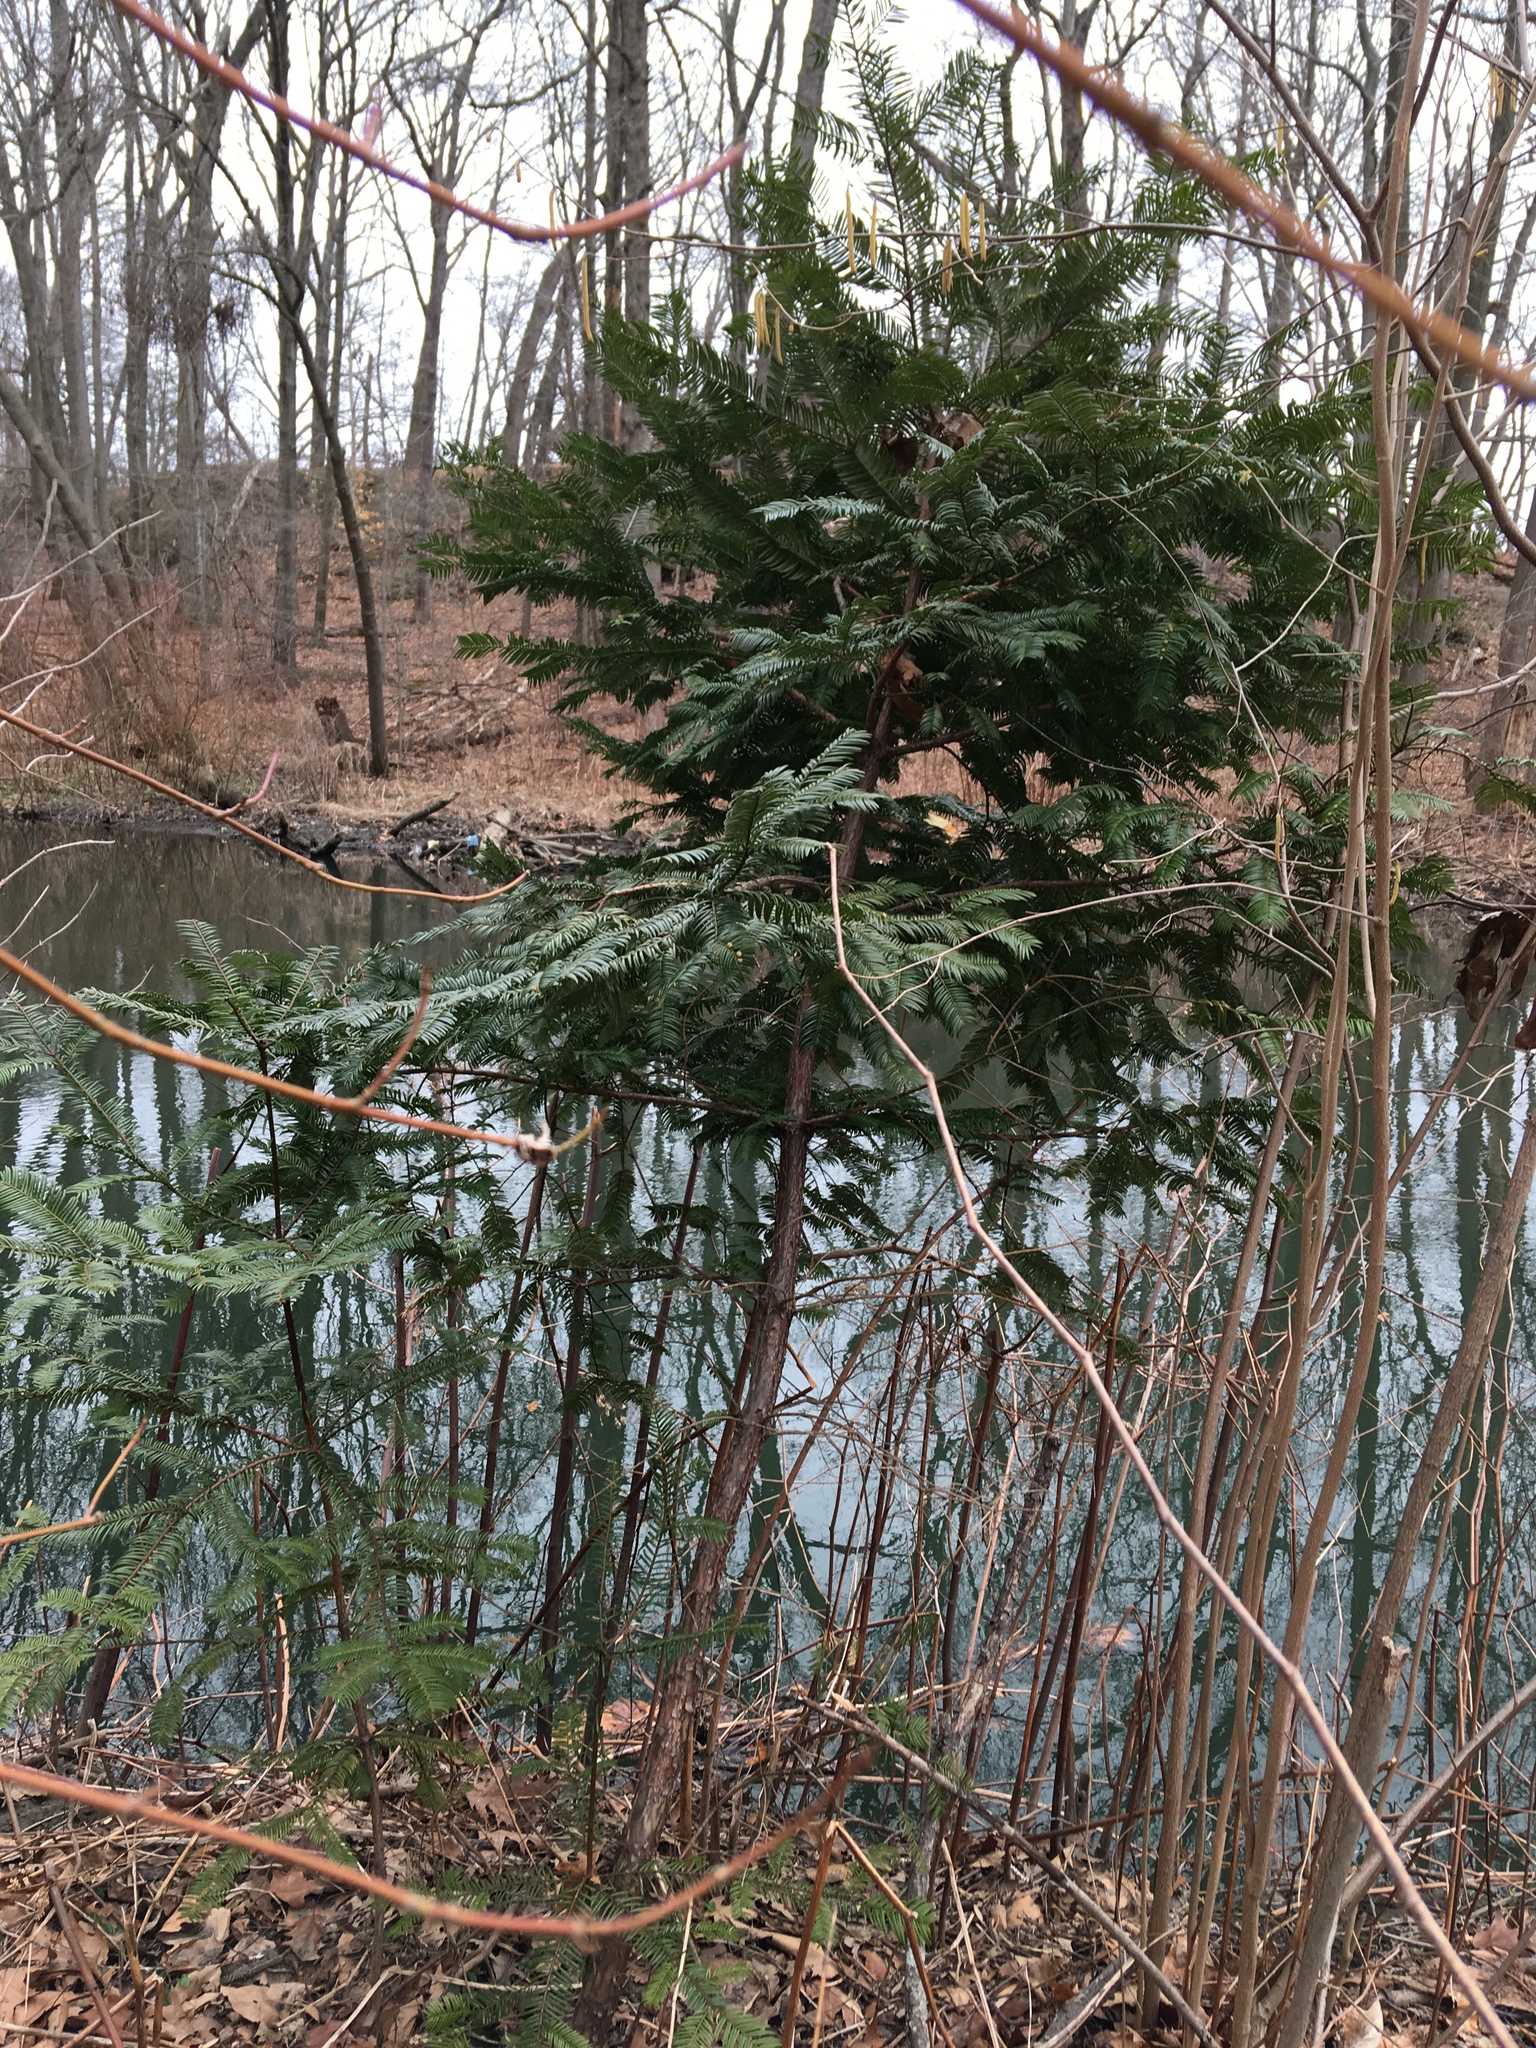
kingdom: Plantae
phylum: Tracheophyta
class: Pinopsida
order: Pinales
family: Cephalotaxaceae
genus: Cephalotaxus
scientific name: Cephalotaxus harringtonia
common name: Japanese plum-yew
